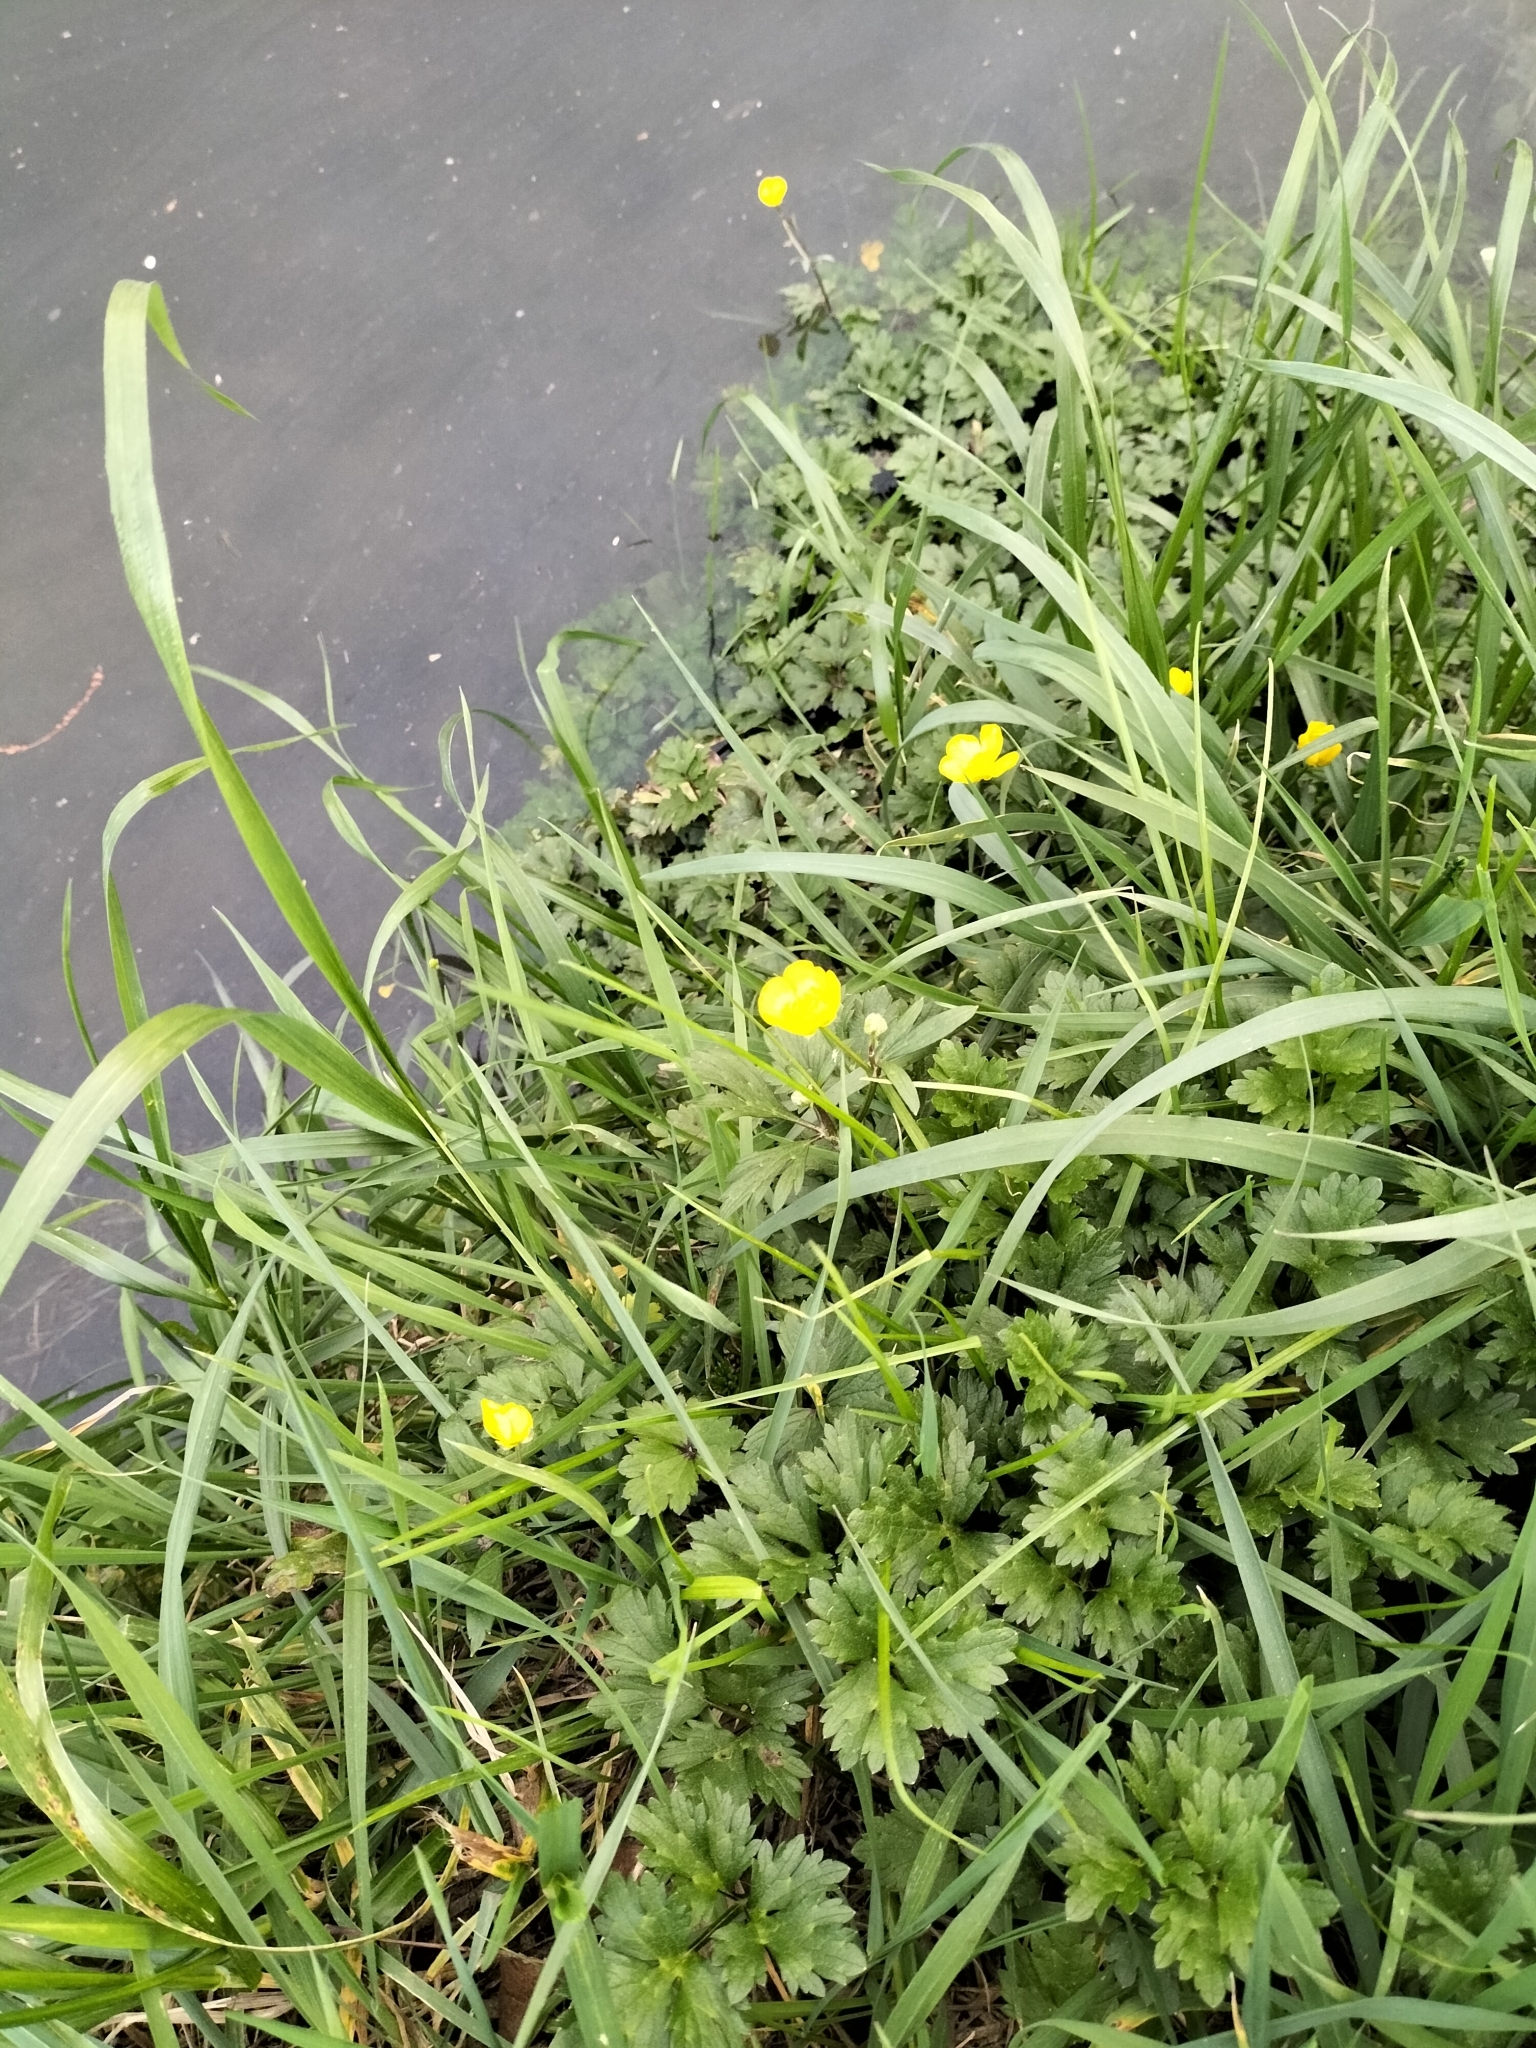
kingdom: Plantae
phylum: Tracheophyta
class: Magnoliopsida
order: Ranunculales
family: Ranunculaceae
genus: Ranunculus
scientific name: Ranunculus repens
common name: Creeping buttercup
